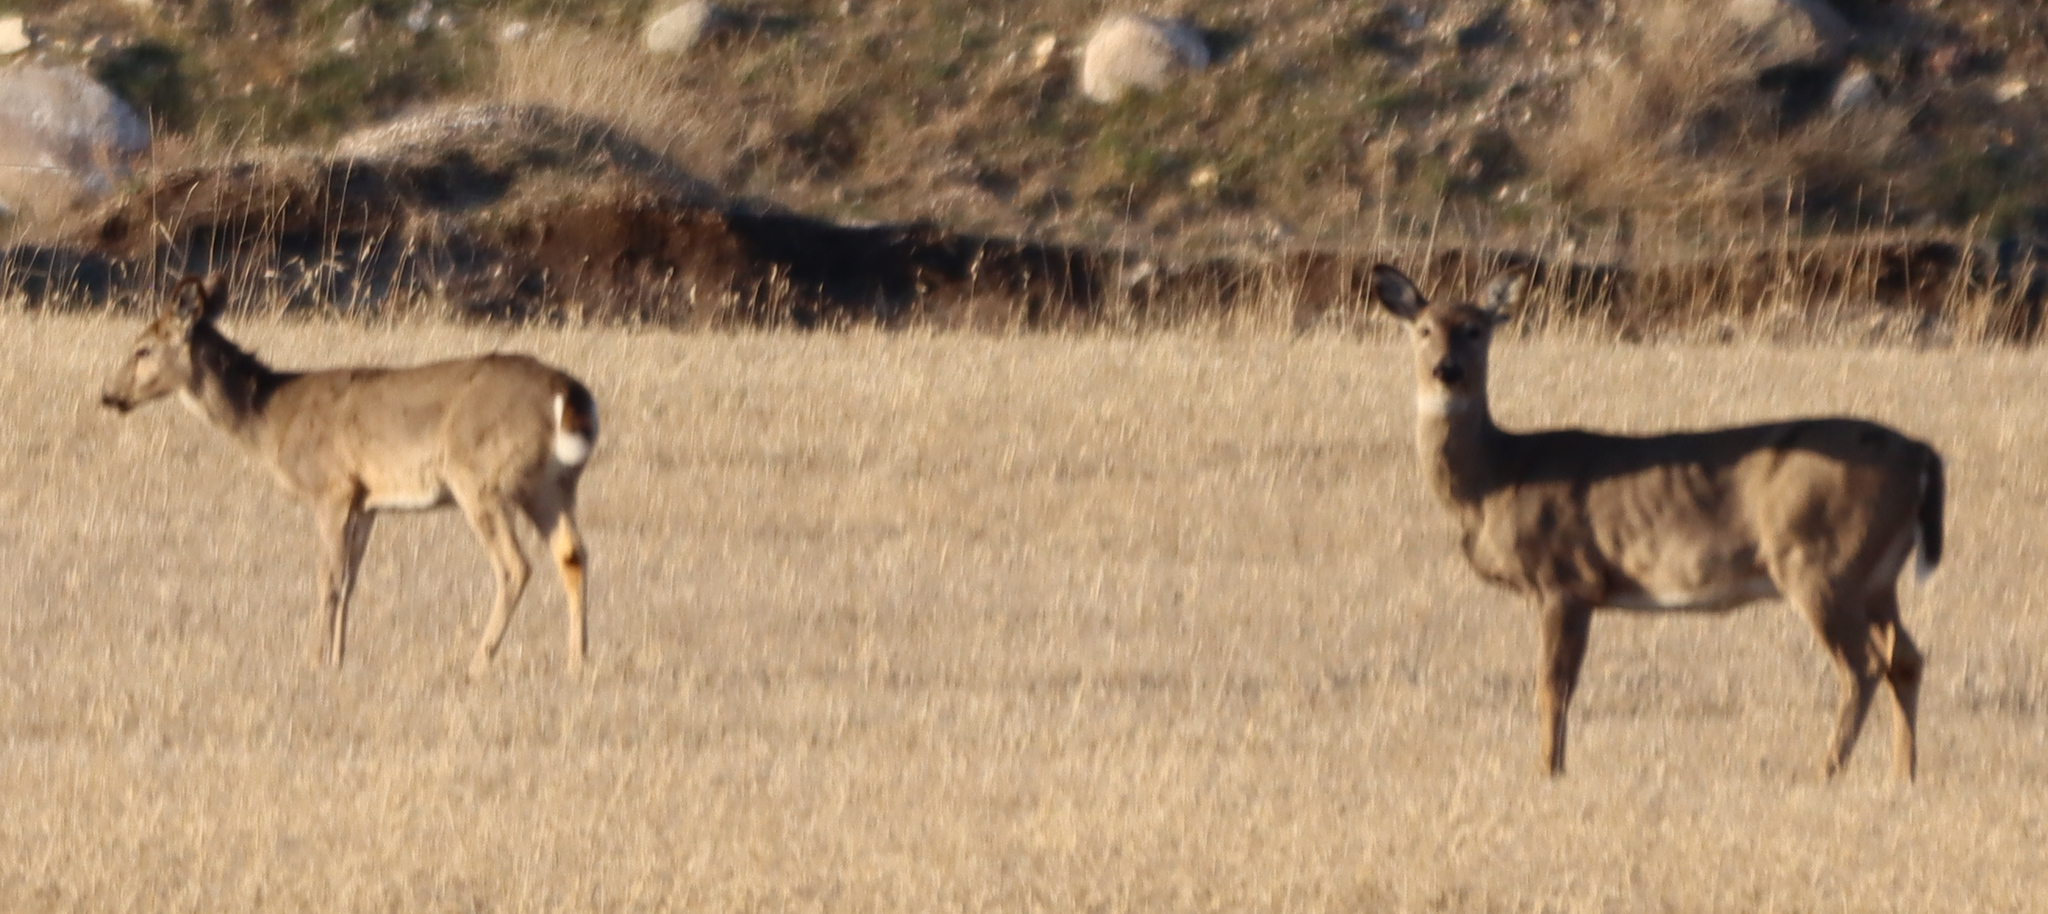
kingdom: Animalia
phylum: Chordata
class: Mammalia
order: Artiodactyla
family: Cervidae
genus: Odocoileus
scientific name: Odocoileus virginianus
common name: White-tailed deer
